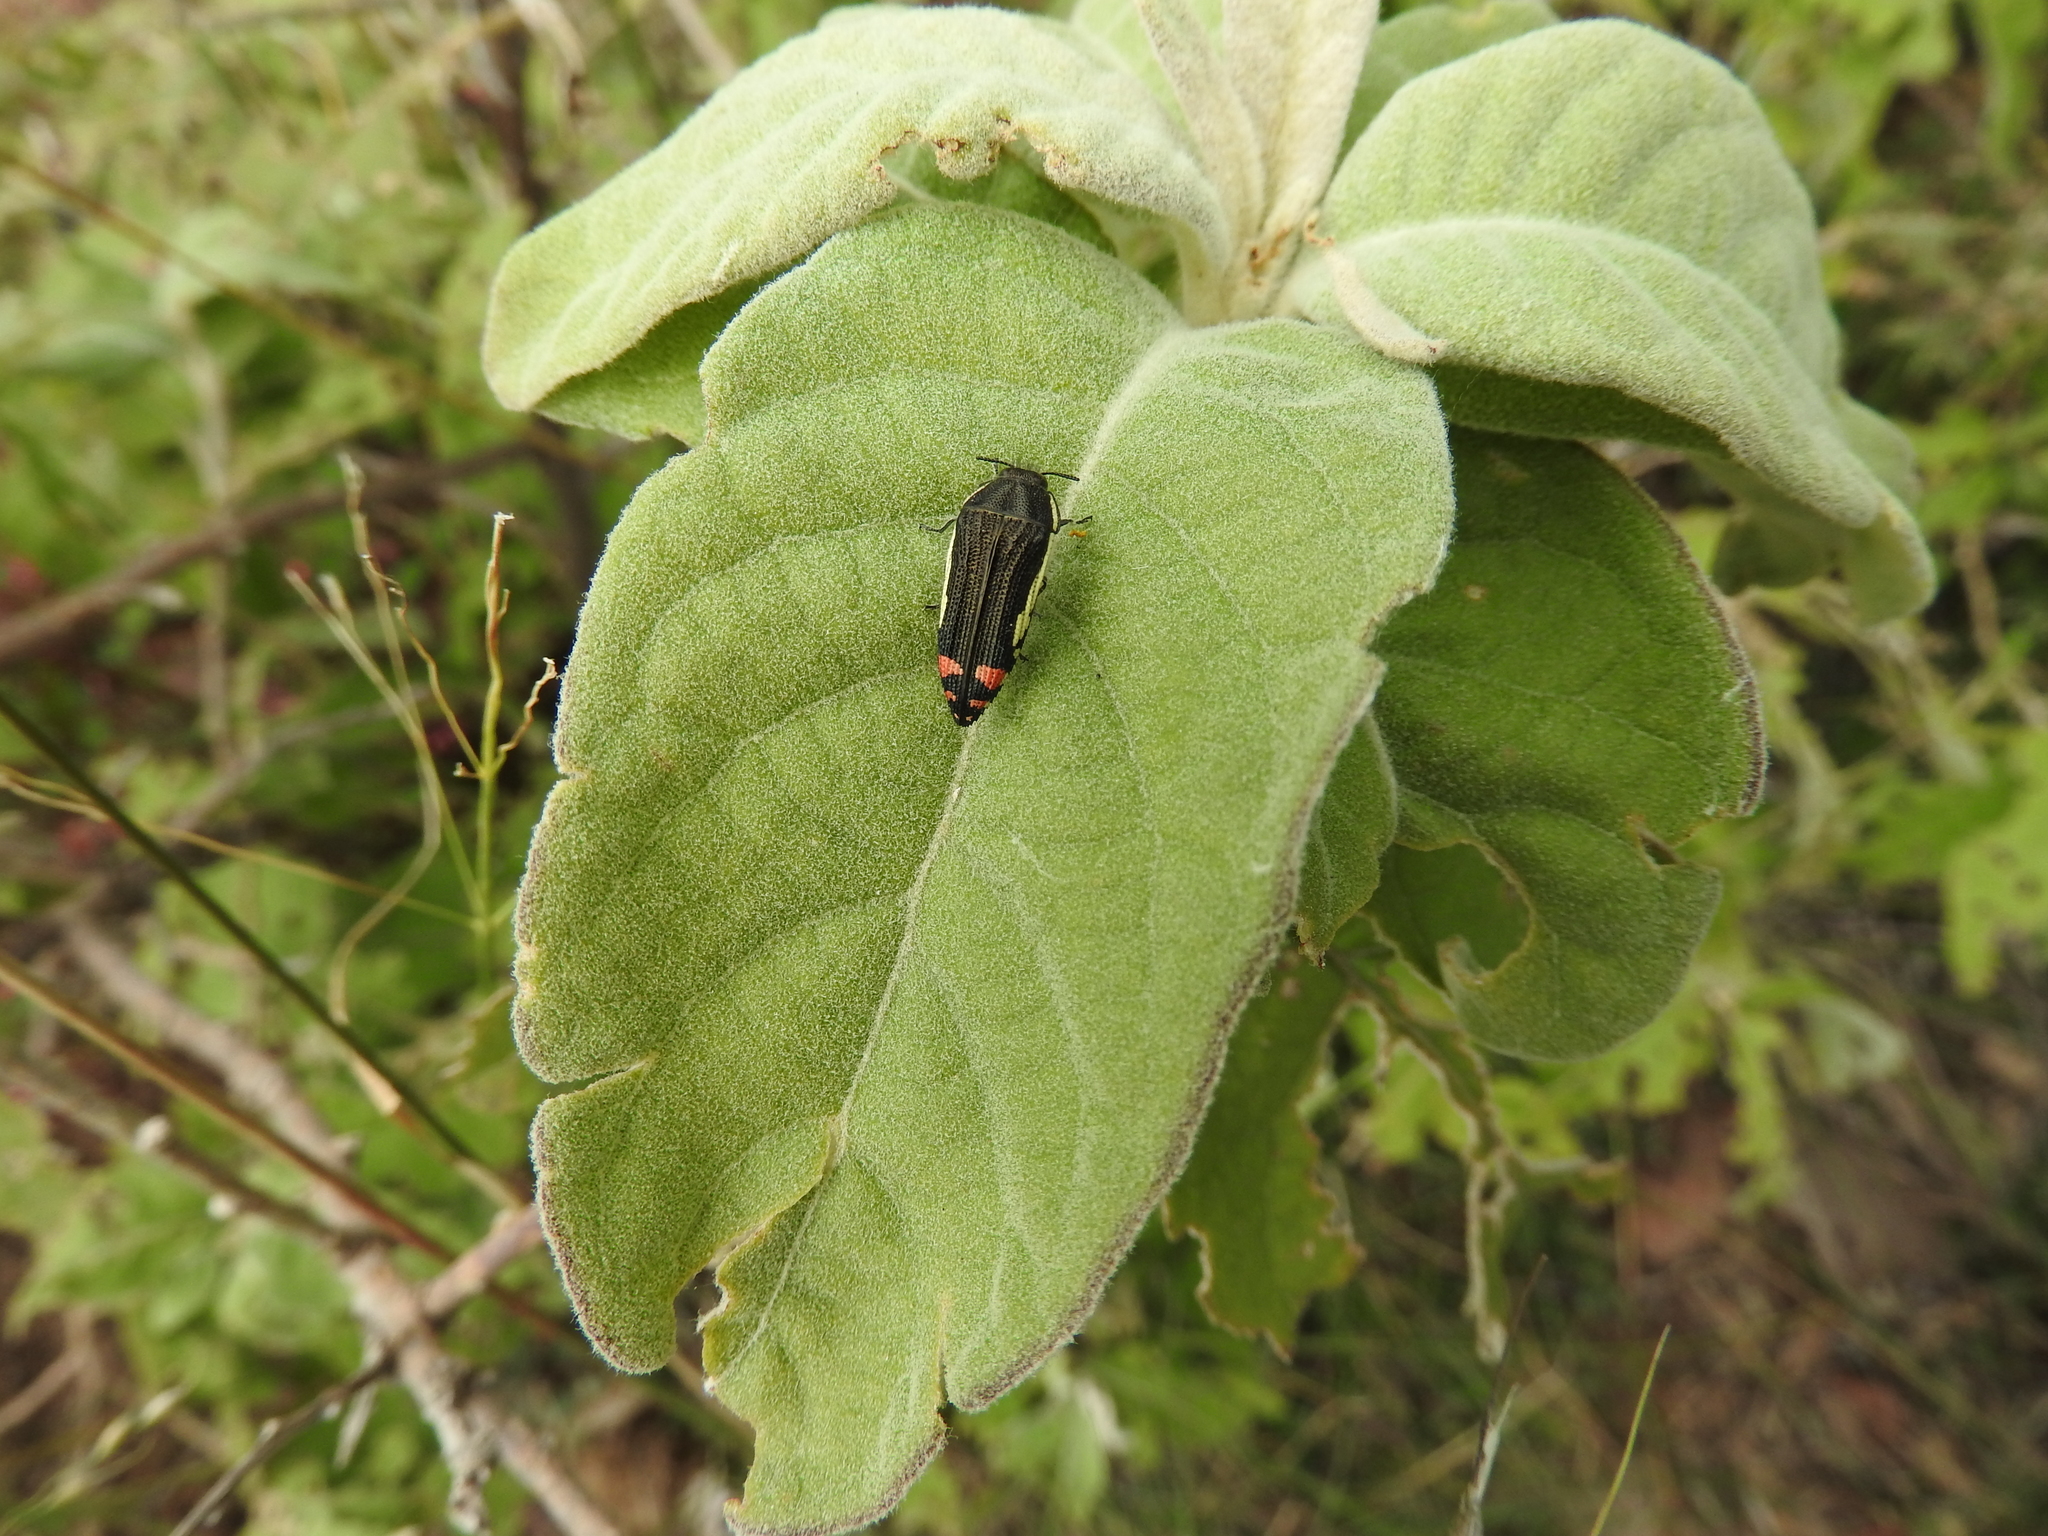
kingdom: Animalia
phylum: Arthropoda
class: Insecta
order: Coleoptera
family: Buprestidae
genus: Acmaeodera
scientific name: Acmaeodera flavomarginata
